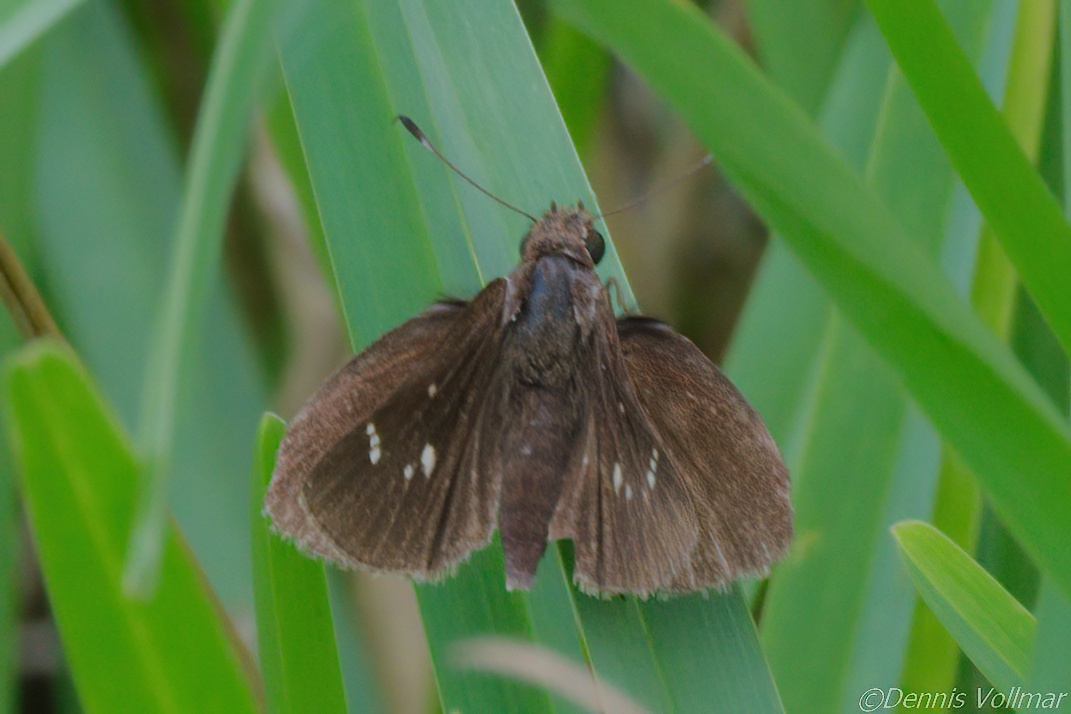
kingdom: Animalia
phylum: Arthropoda
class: Insecta
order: Lepidoptera
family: Hesperiidae
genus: Lerema
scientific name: Lerema accius
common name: Clouded skipper
